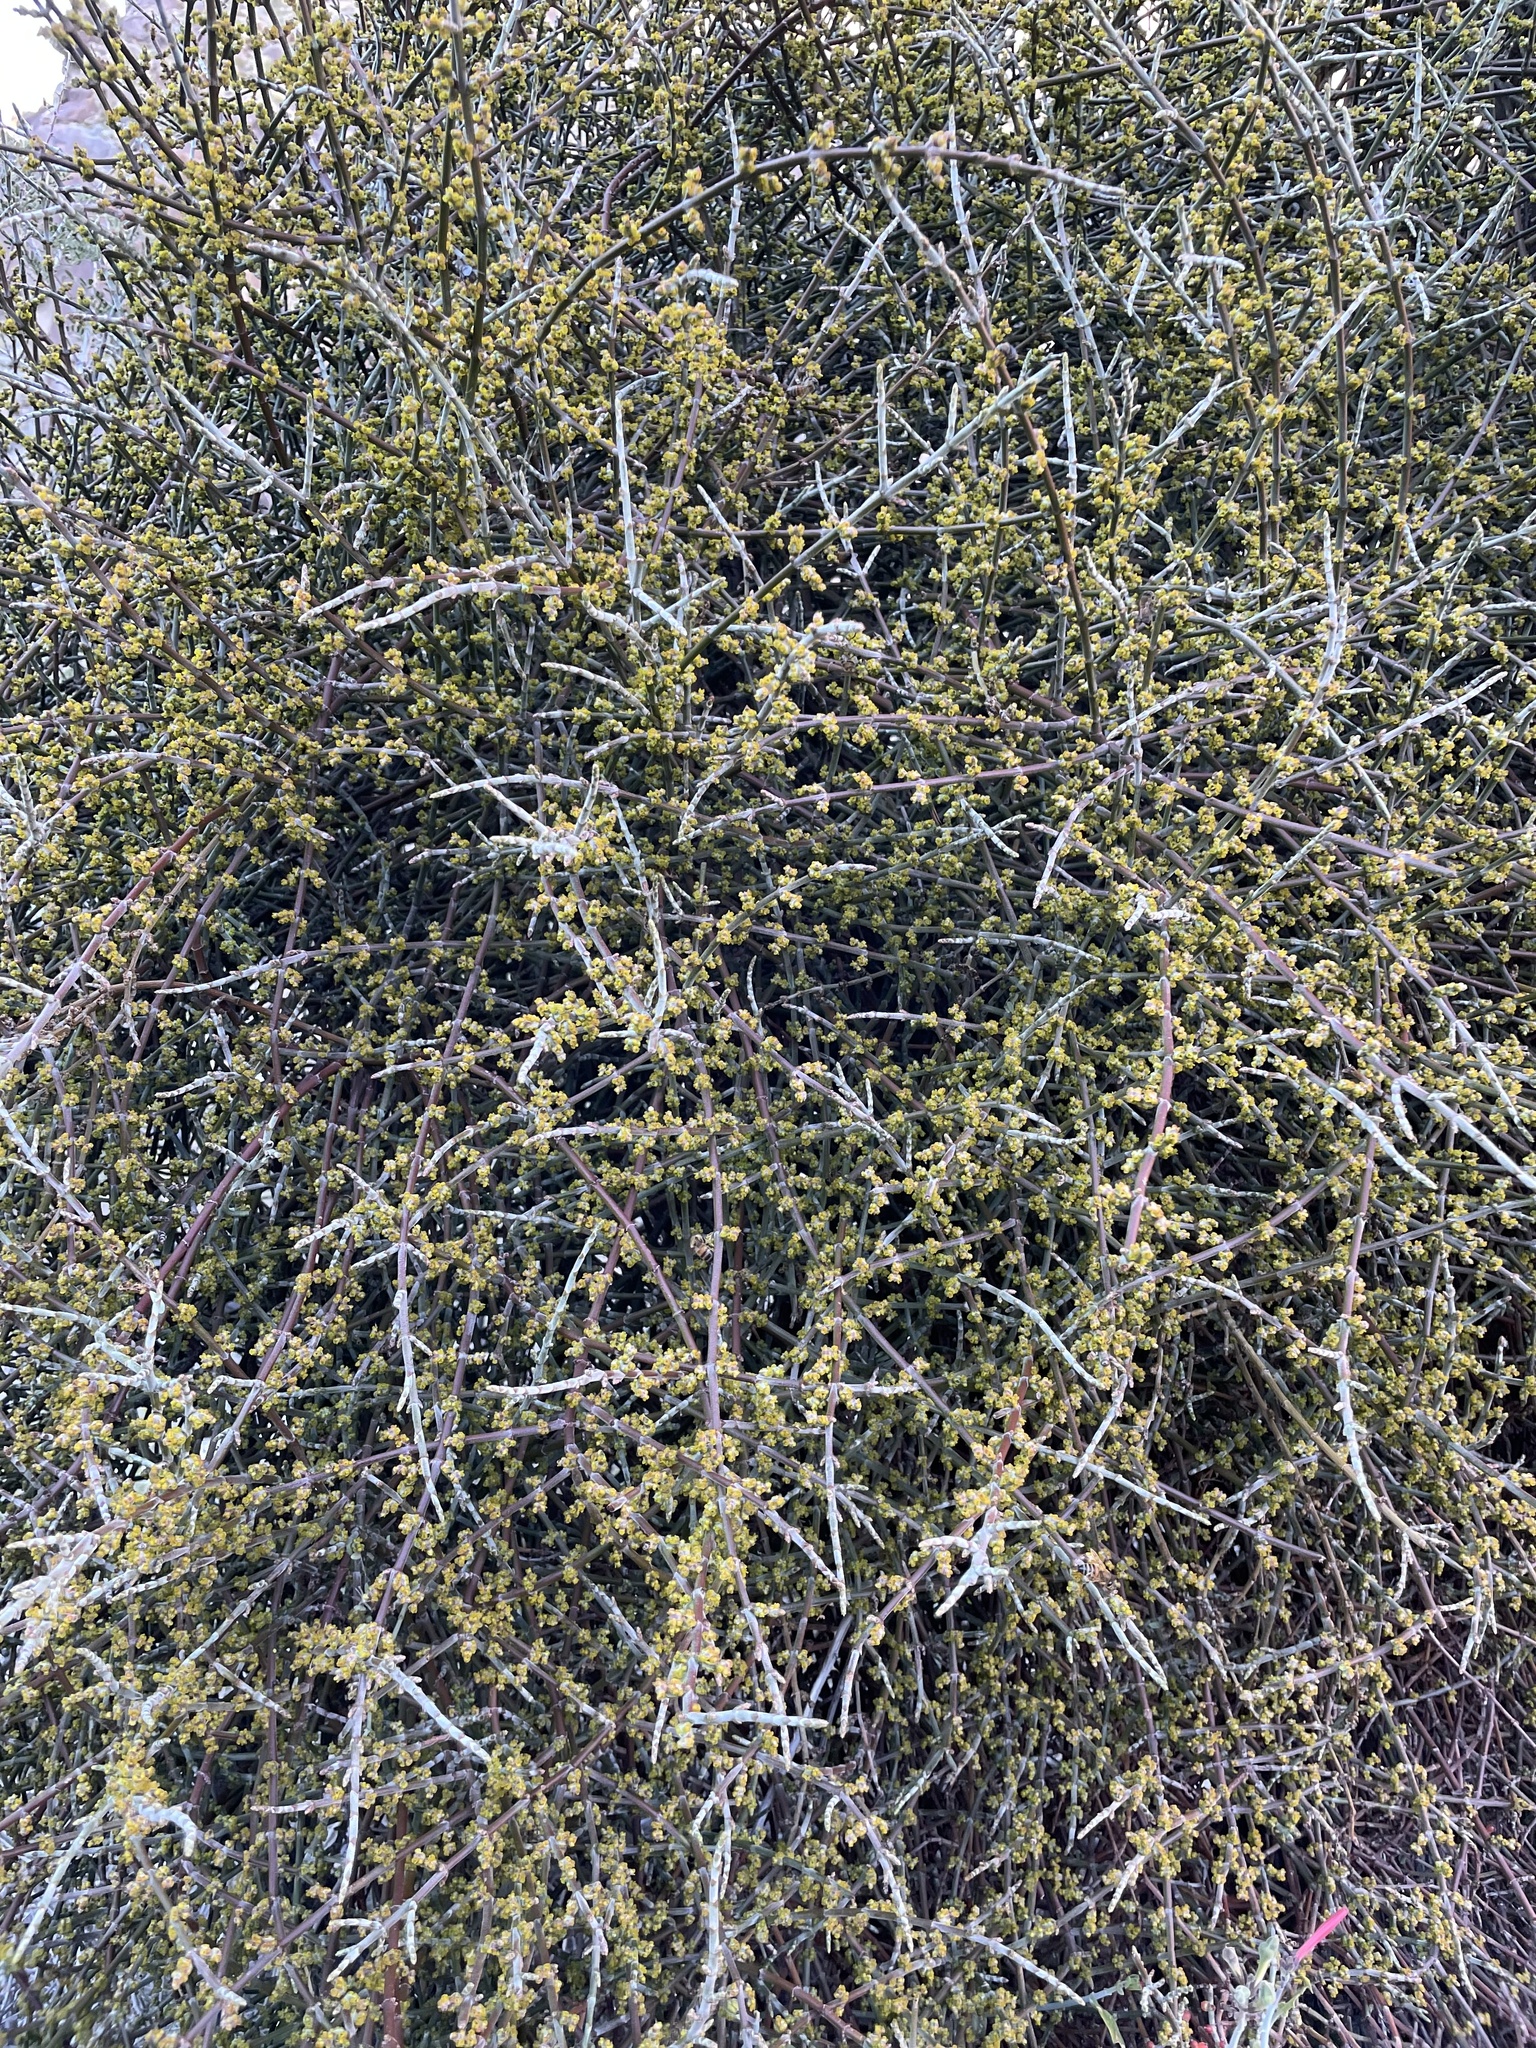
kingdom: Plantae
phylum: Tracheophyta
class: Magnoliopsida
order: Santalales
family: Viscaceae
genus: Phoradendron
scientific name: Phoradendron californicum
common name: Acacia mistletoe
